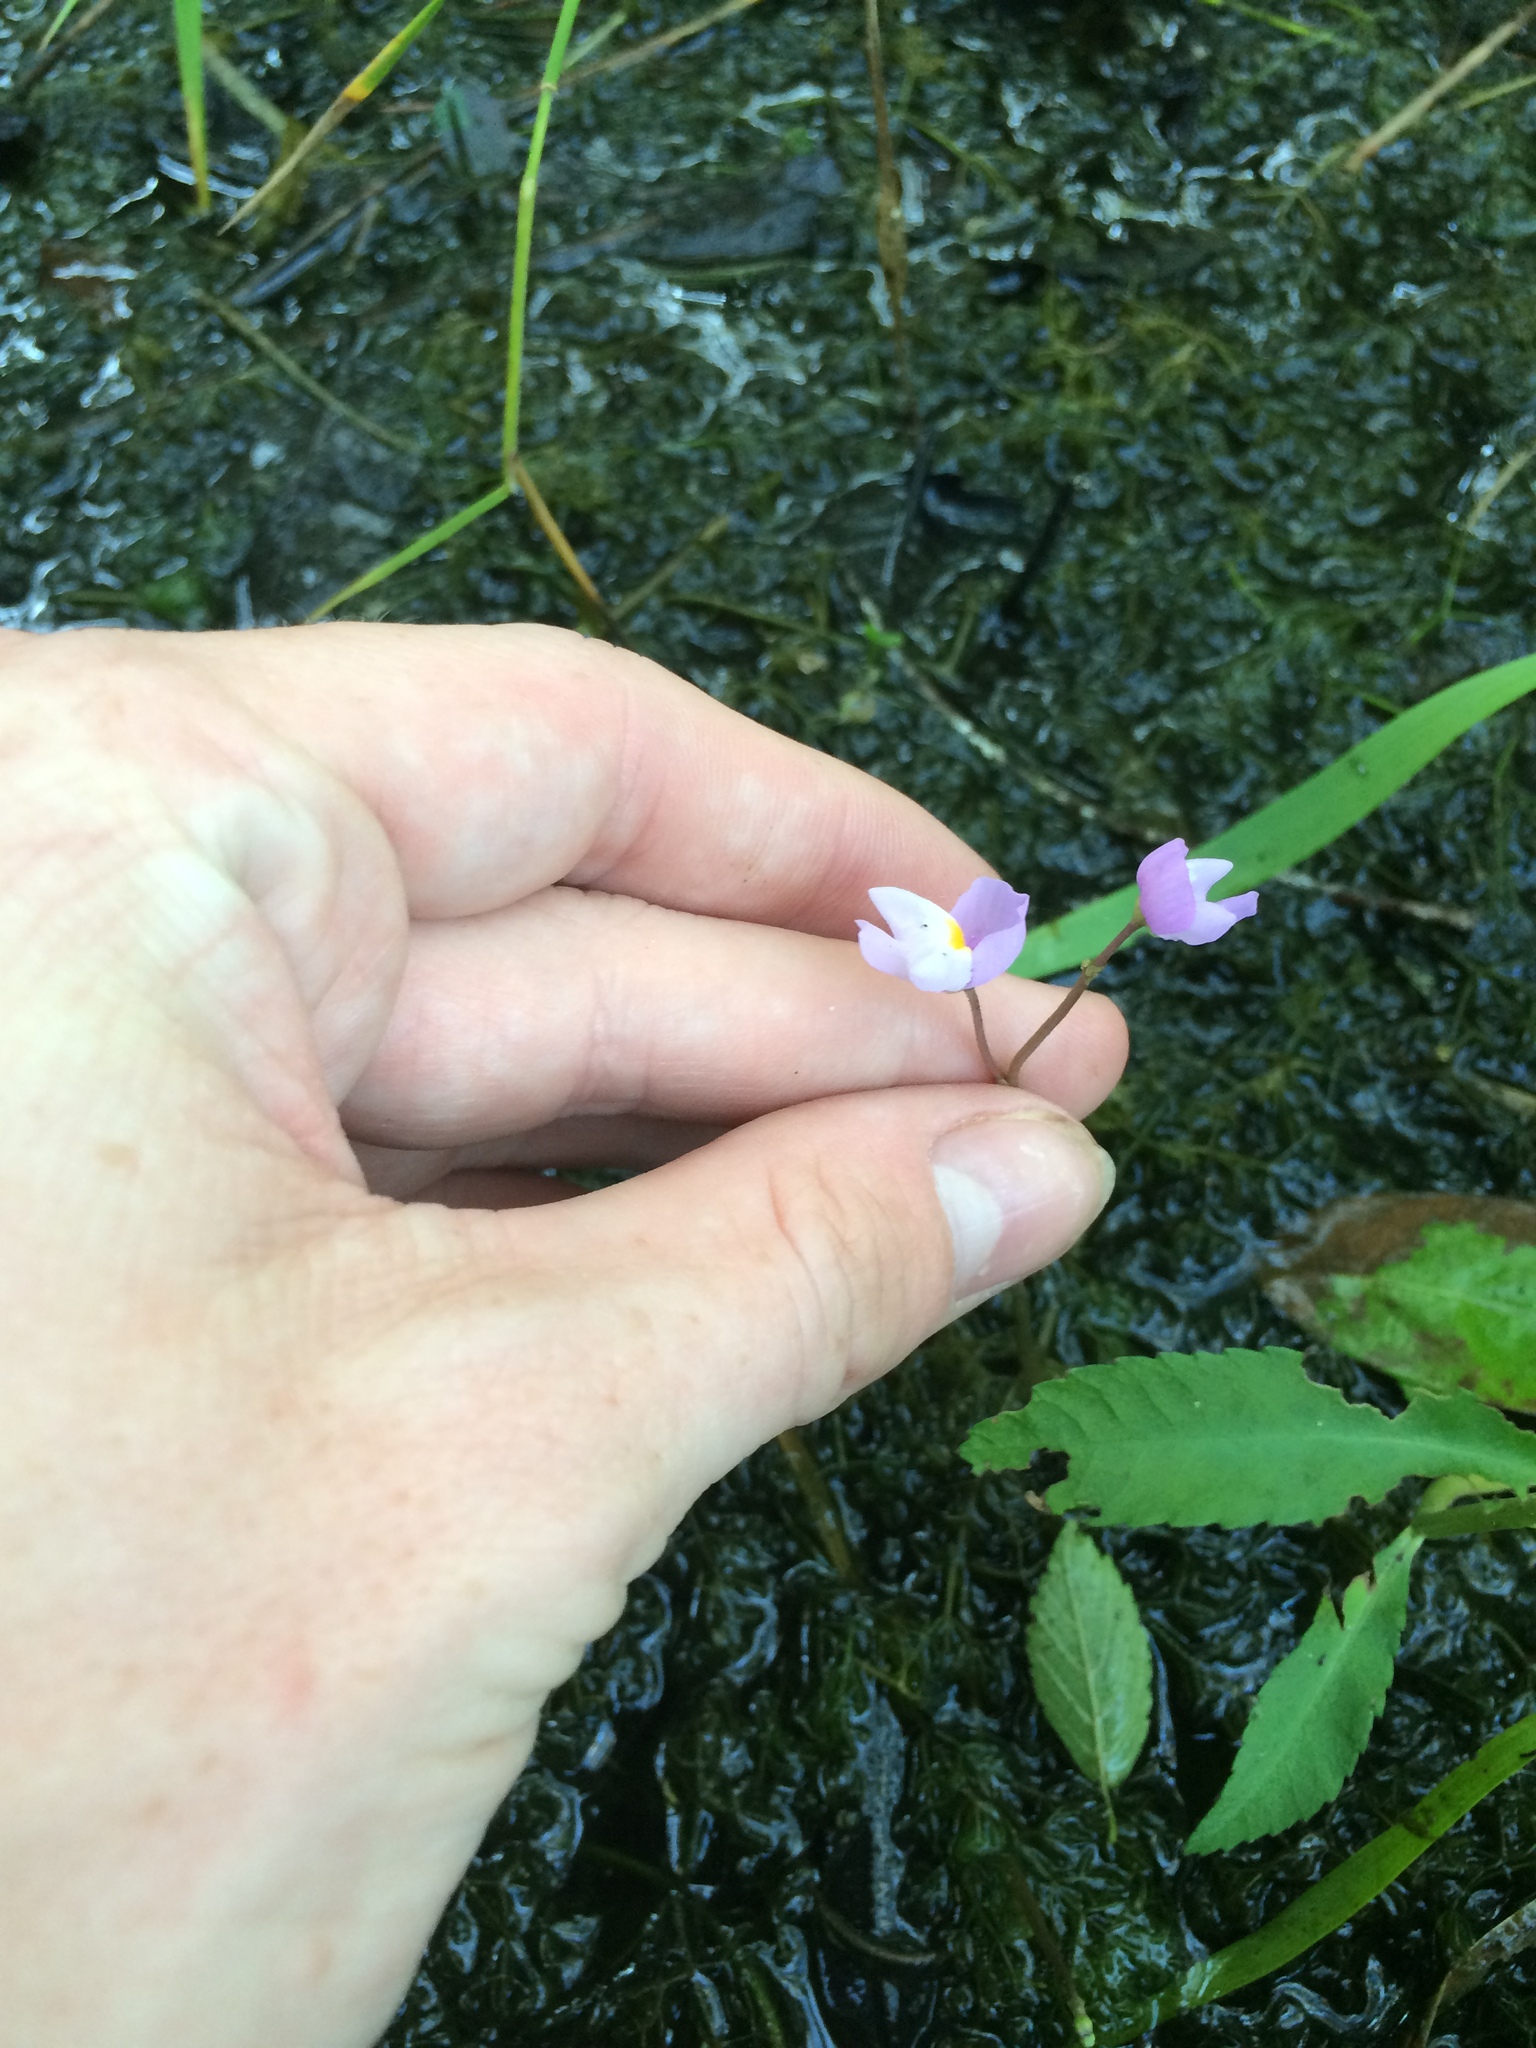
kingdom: Plantae
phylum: Tracheophyta
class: Magnoliopsida
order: Lamiales
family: Lentibulariaceae
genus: Utricularia
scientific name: Utricularia purpurea
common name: Eastern purple bladderwort
